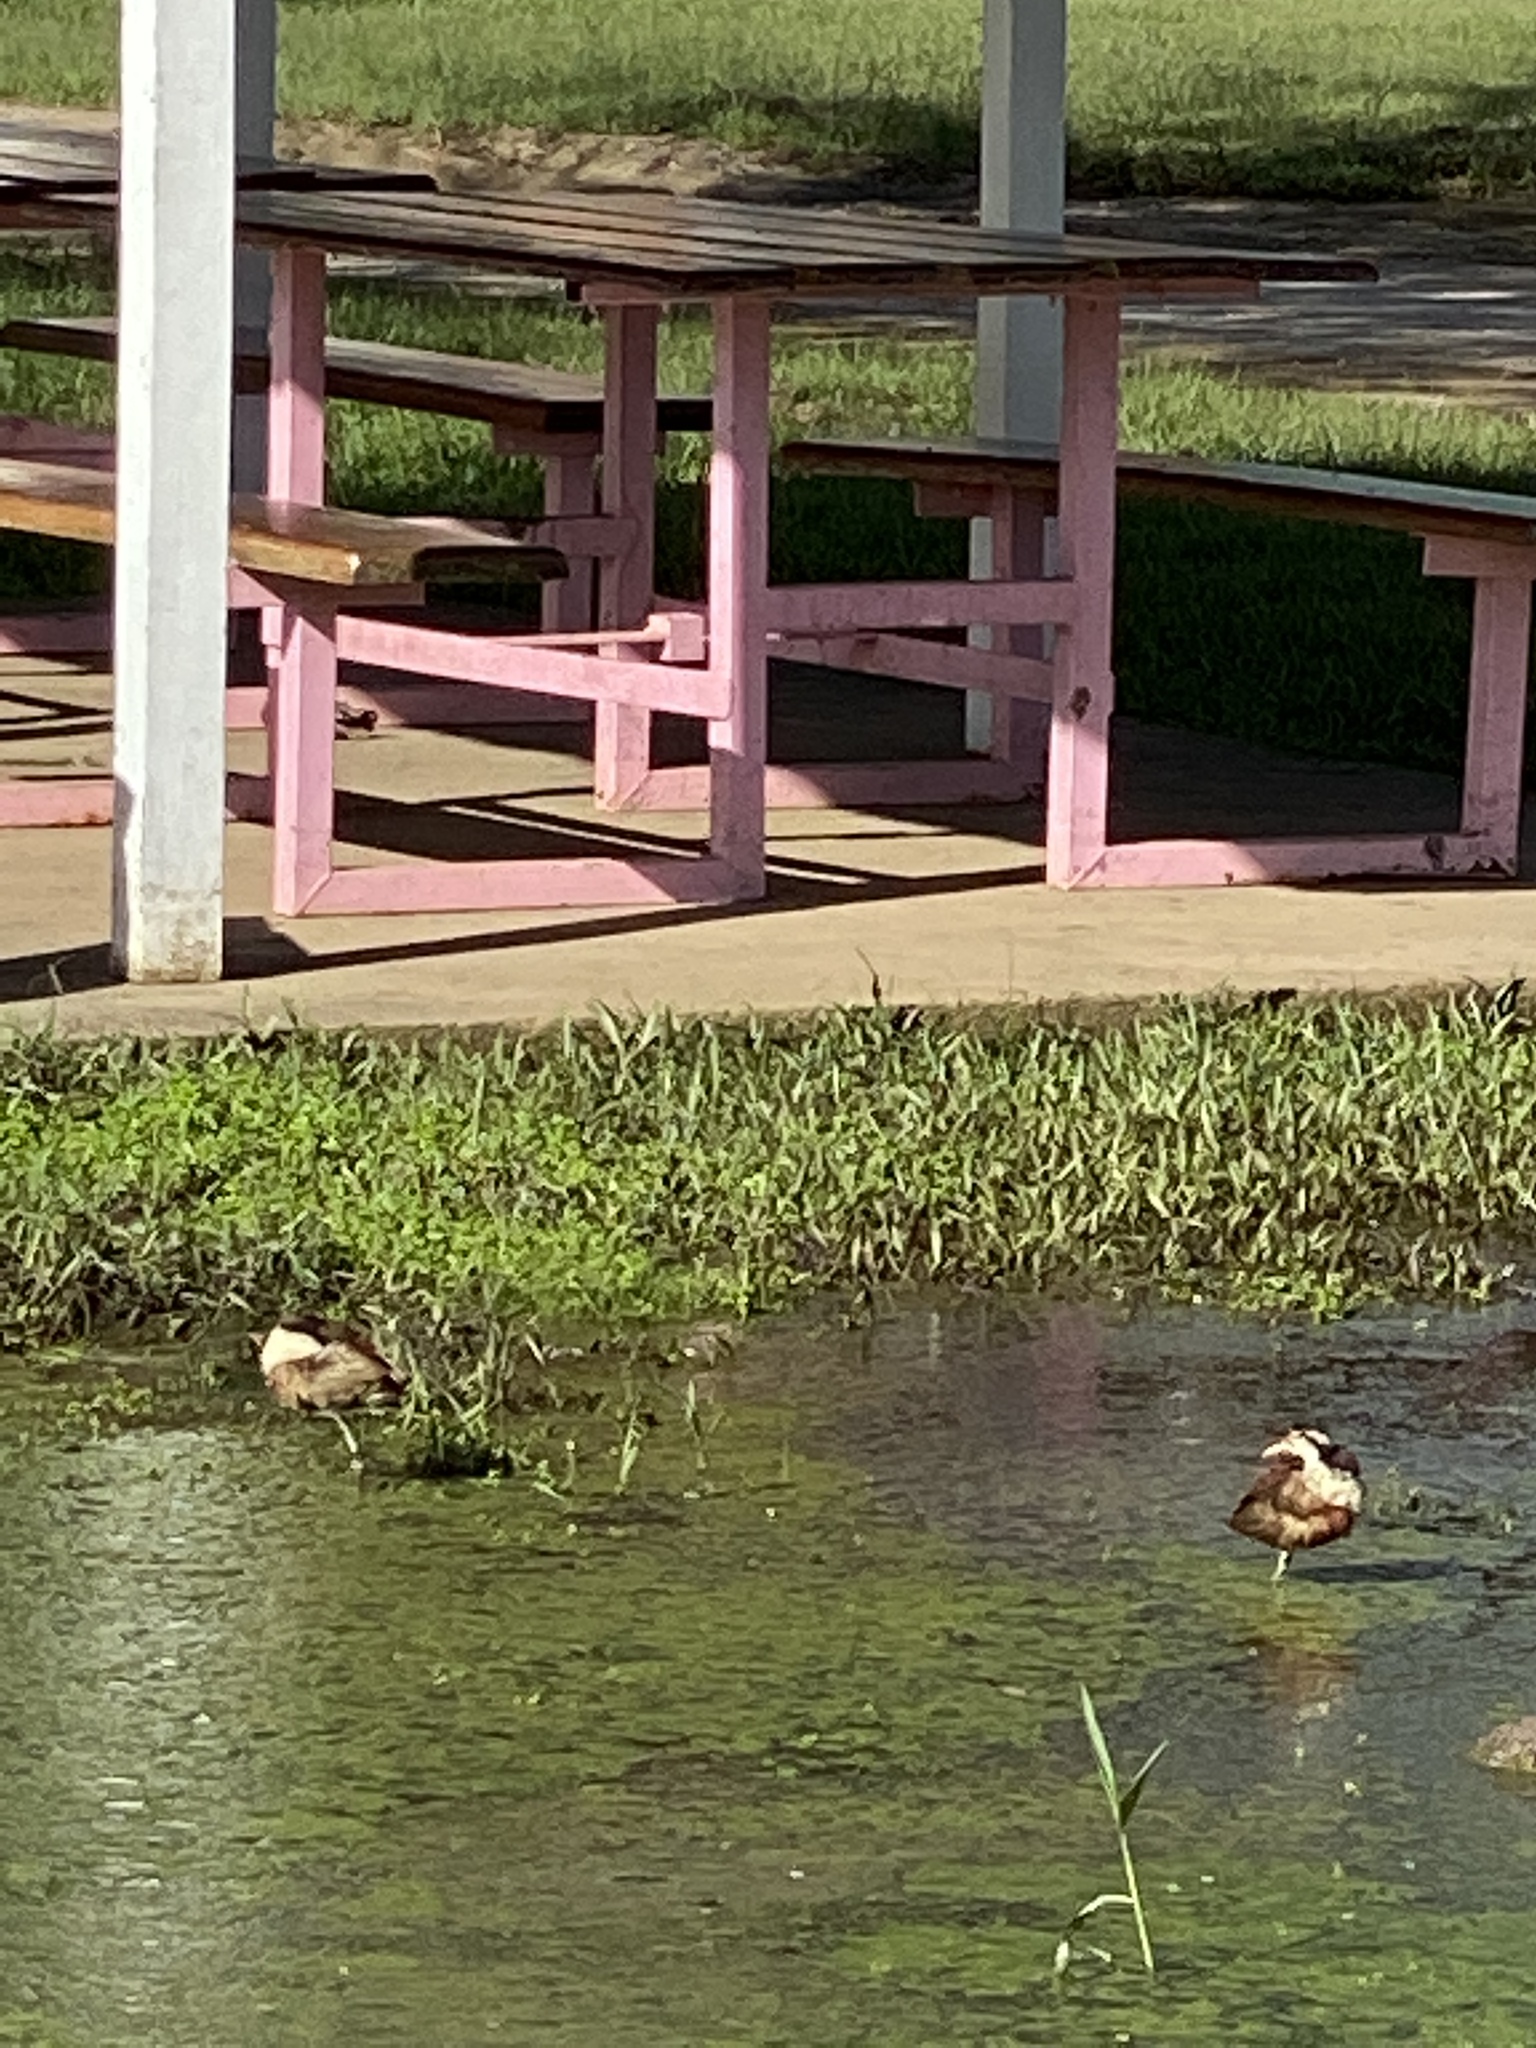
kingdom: Animalia
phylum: Chordata
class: Aves
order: Charadriiformes
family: Jacanidae
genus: Jacana
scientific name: Jacana jacana
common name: Wattled jacana
